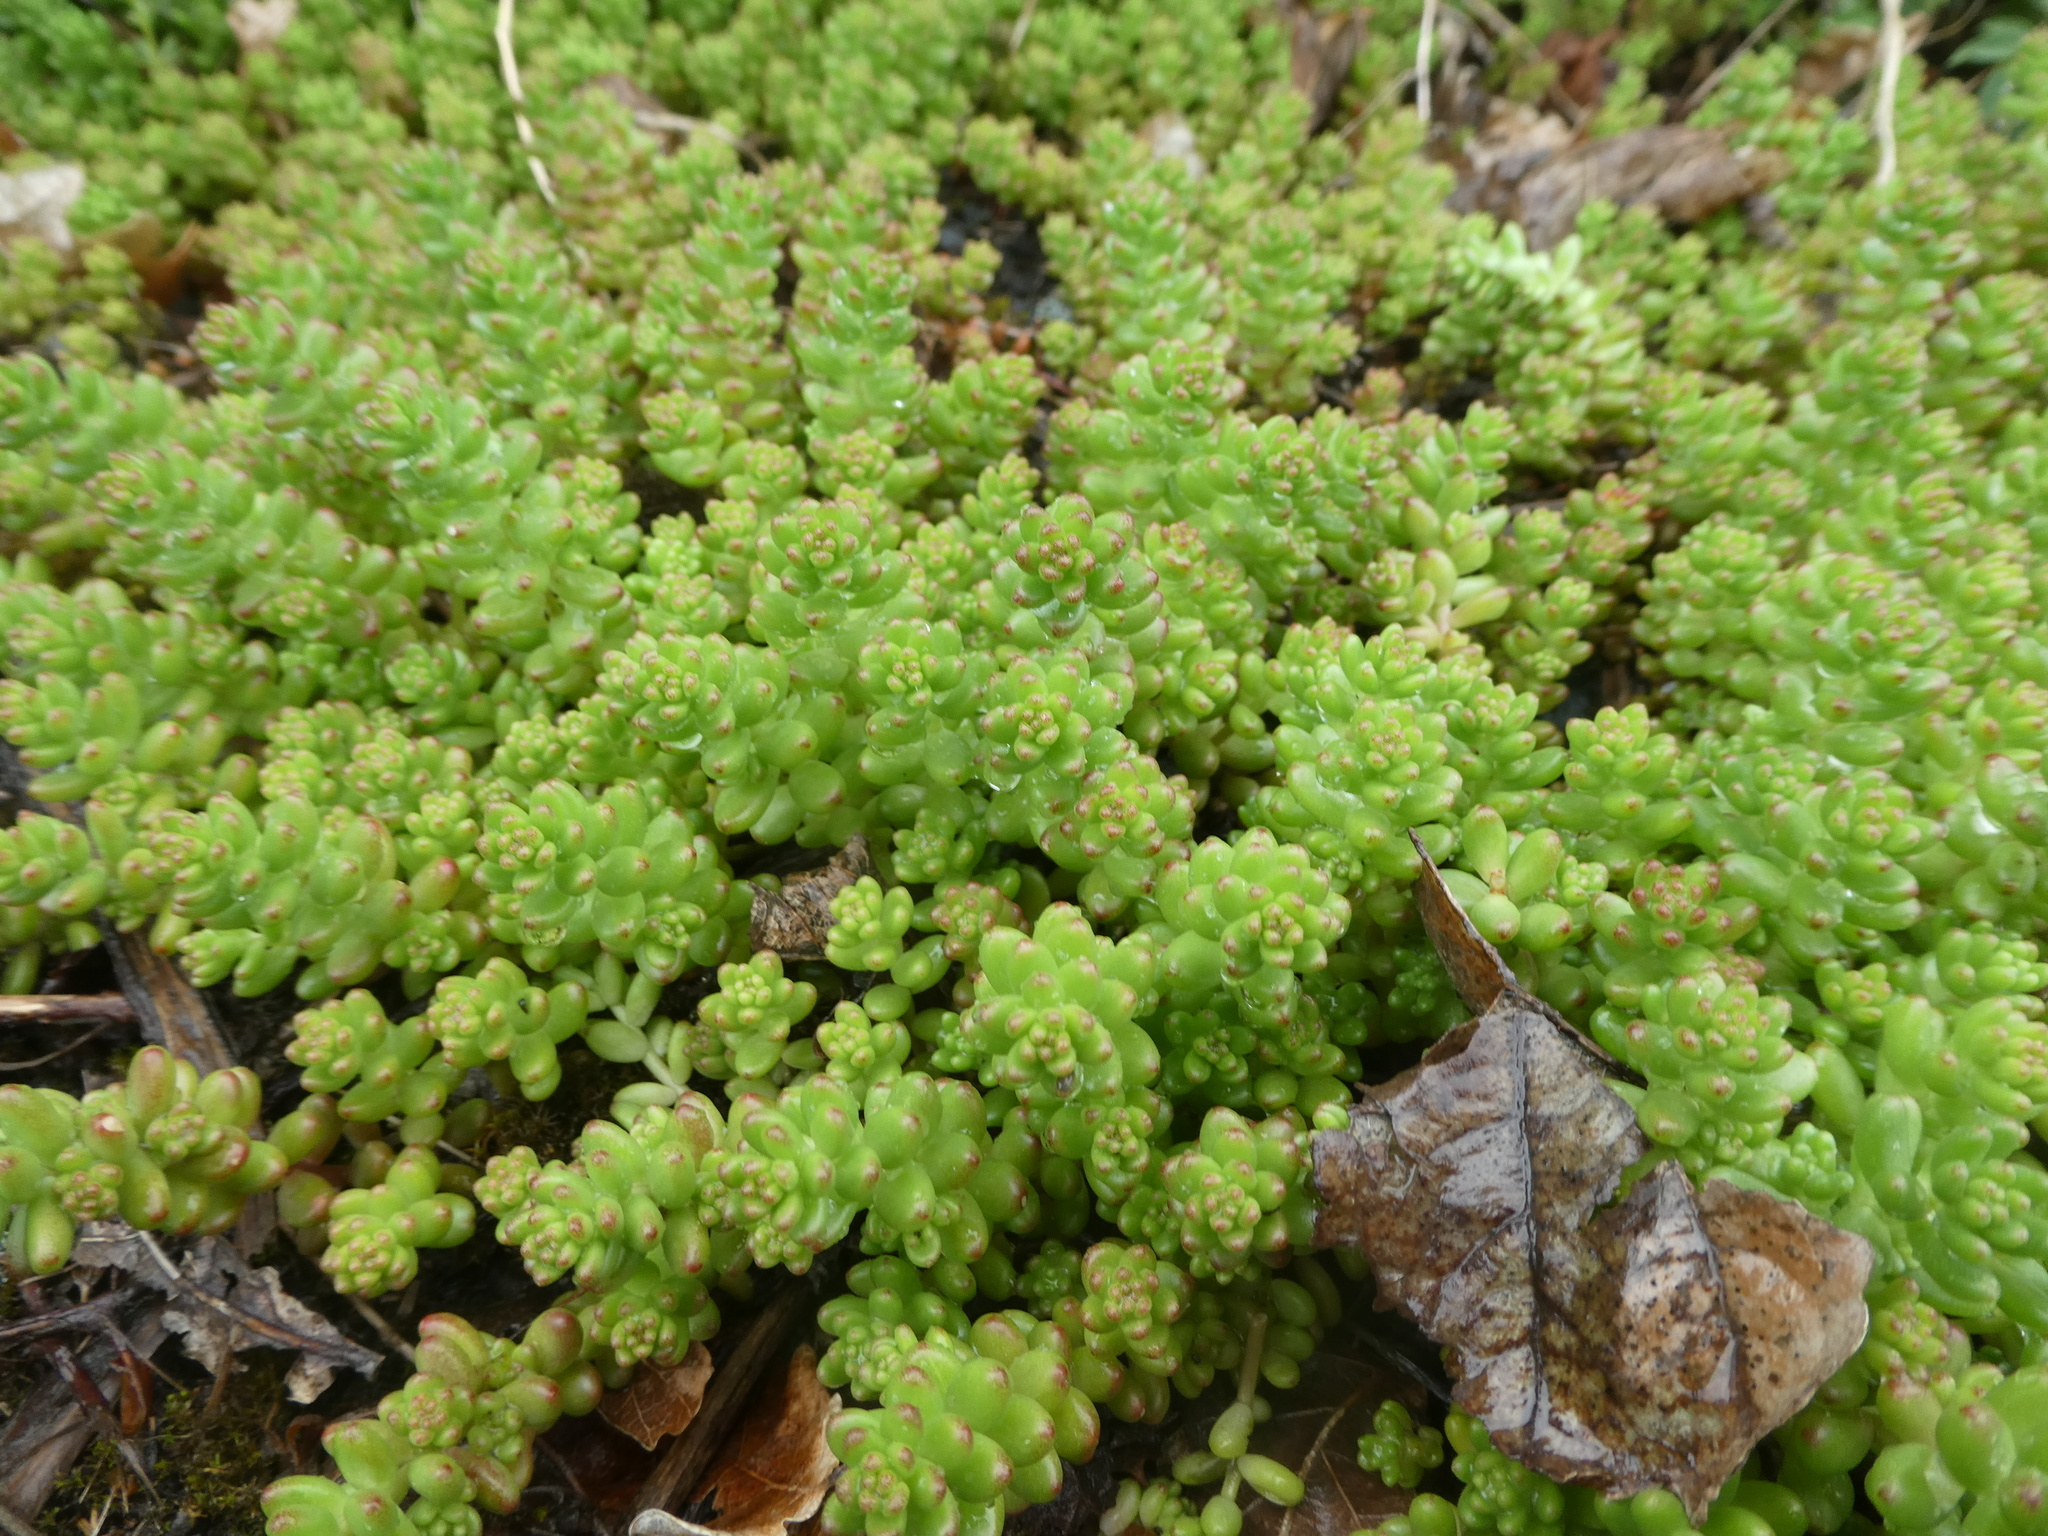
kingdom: Plantae
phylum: Tracheophyta
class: Magnoliopsida
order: Saxifragales
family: Crassulaceae
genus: Sedum
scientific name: Sedum album
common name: White stonecrop
